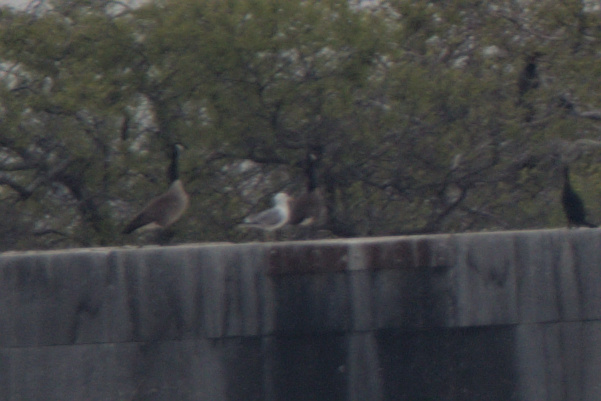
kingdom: Animalia
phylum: Chordata
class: Aves
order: Anseriformes
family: Anatidae
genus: Branta
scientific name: Branta canadensis
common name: Canada goose
